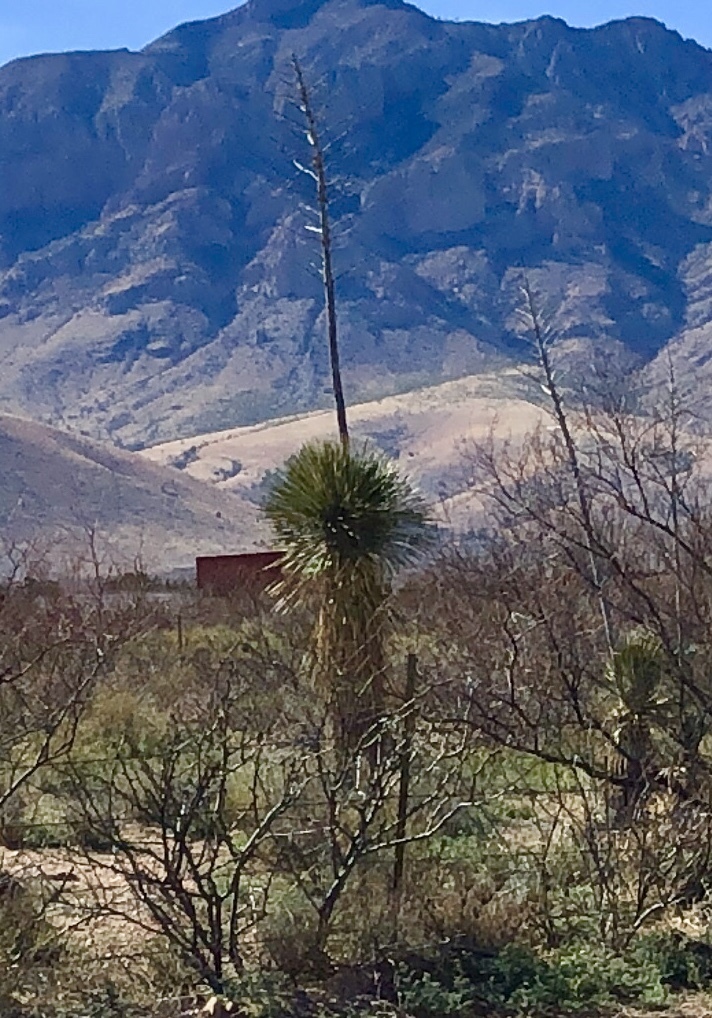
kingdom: Plantae
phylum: Tracheophyta
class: Liliopsida
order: Asparagales
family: Asparagaceae
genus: Yucca
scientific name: Yucca elata
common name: Palmella
